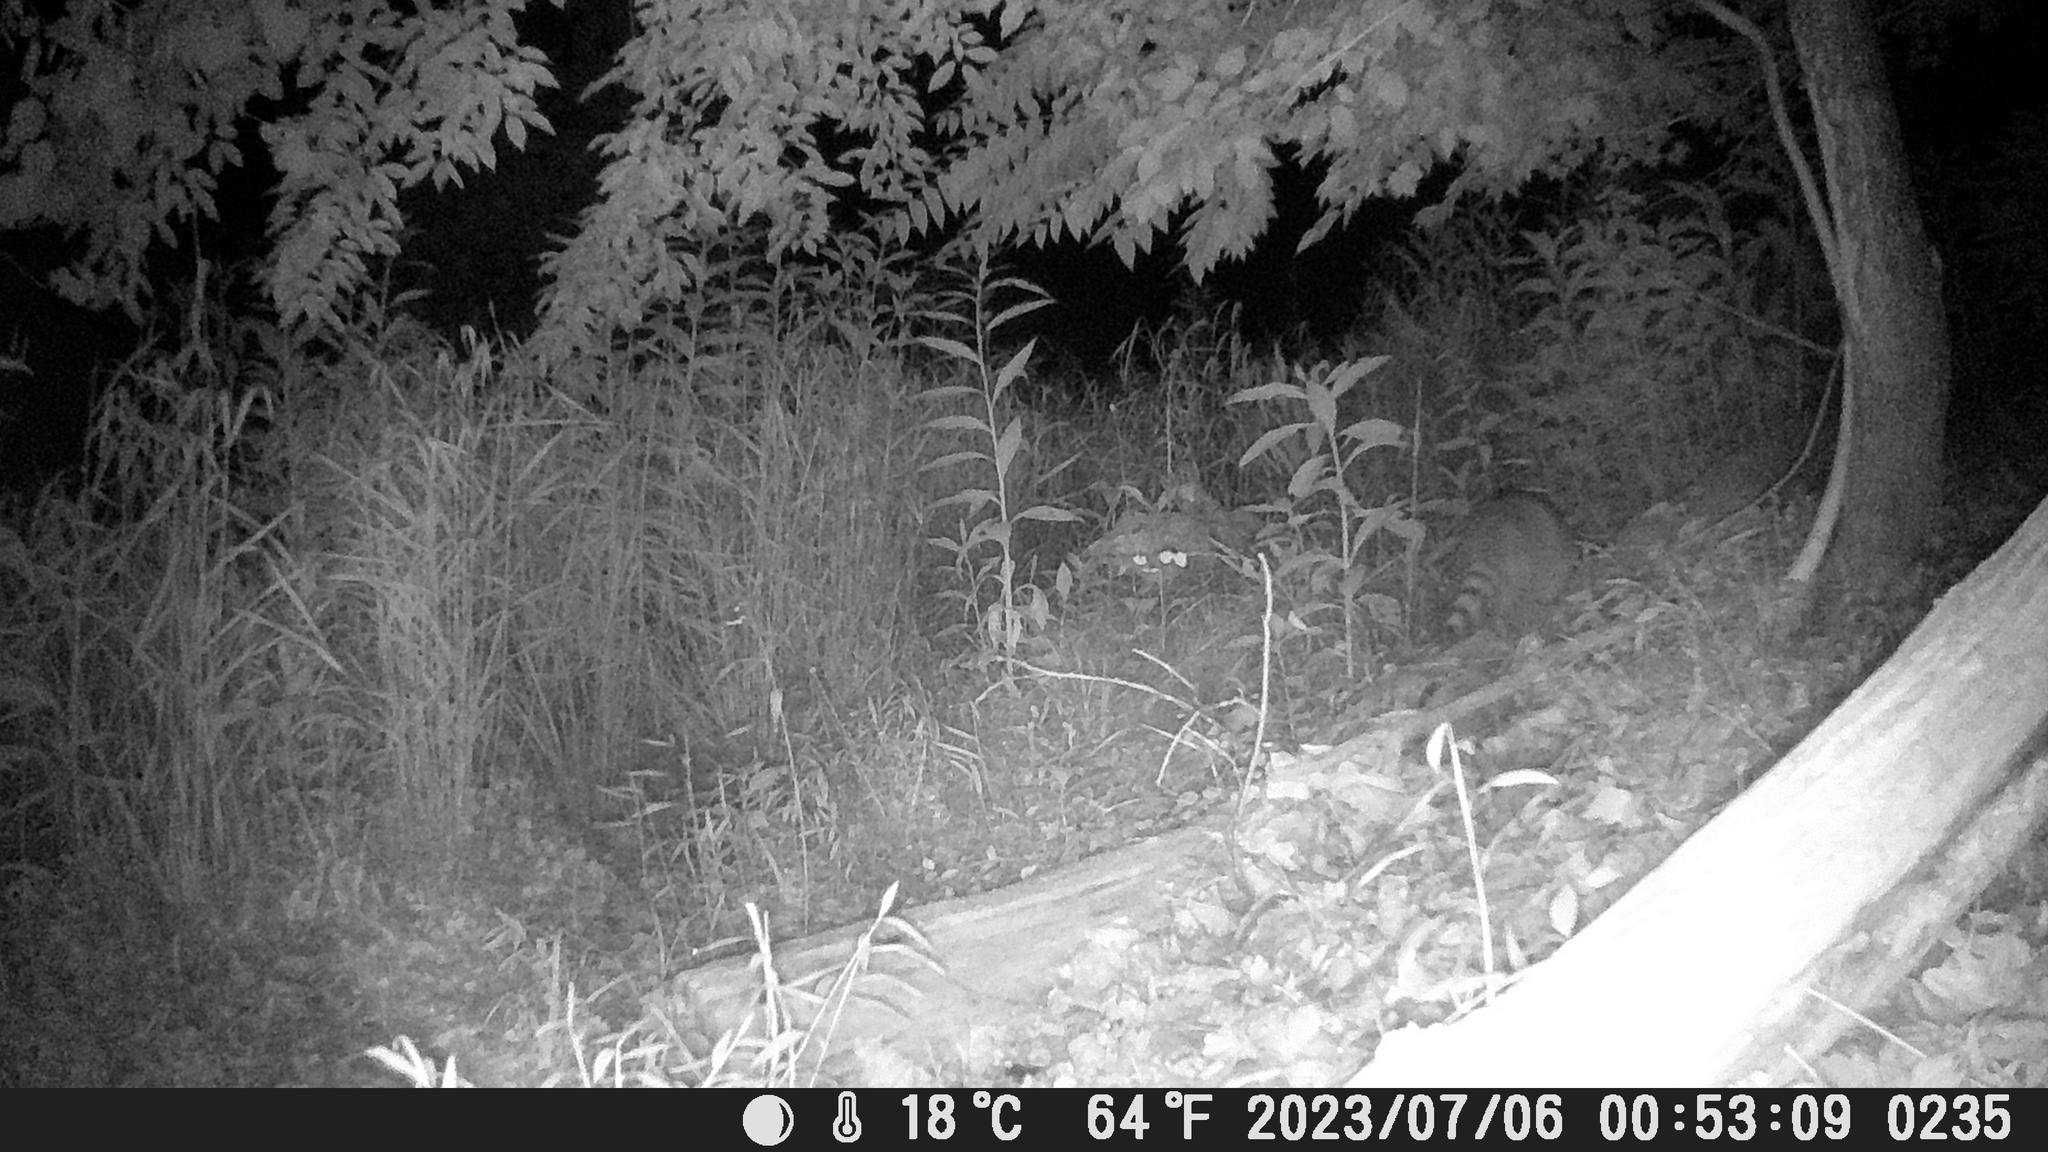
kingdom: Animalia
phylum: Chordata
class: Mammalia
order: Carnivora
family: Procyonidae
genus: Procyon
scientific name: Procyon lotor
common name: Raccoon
